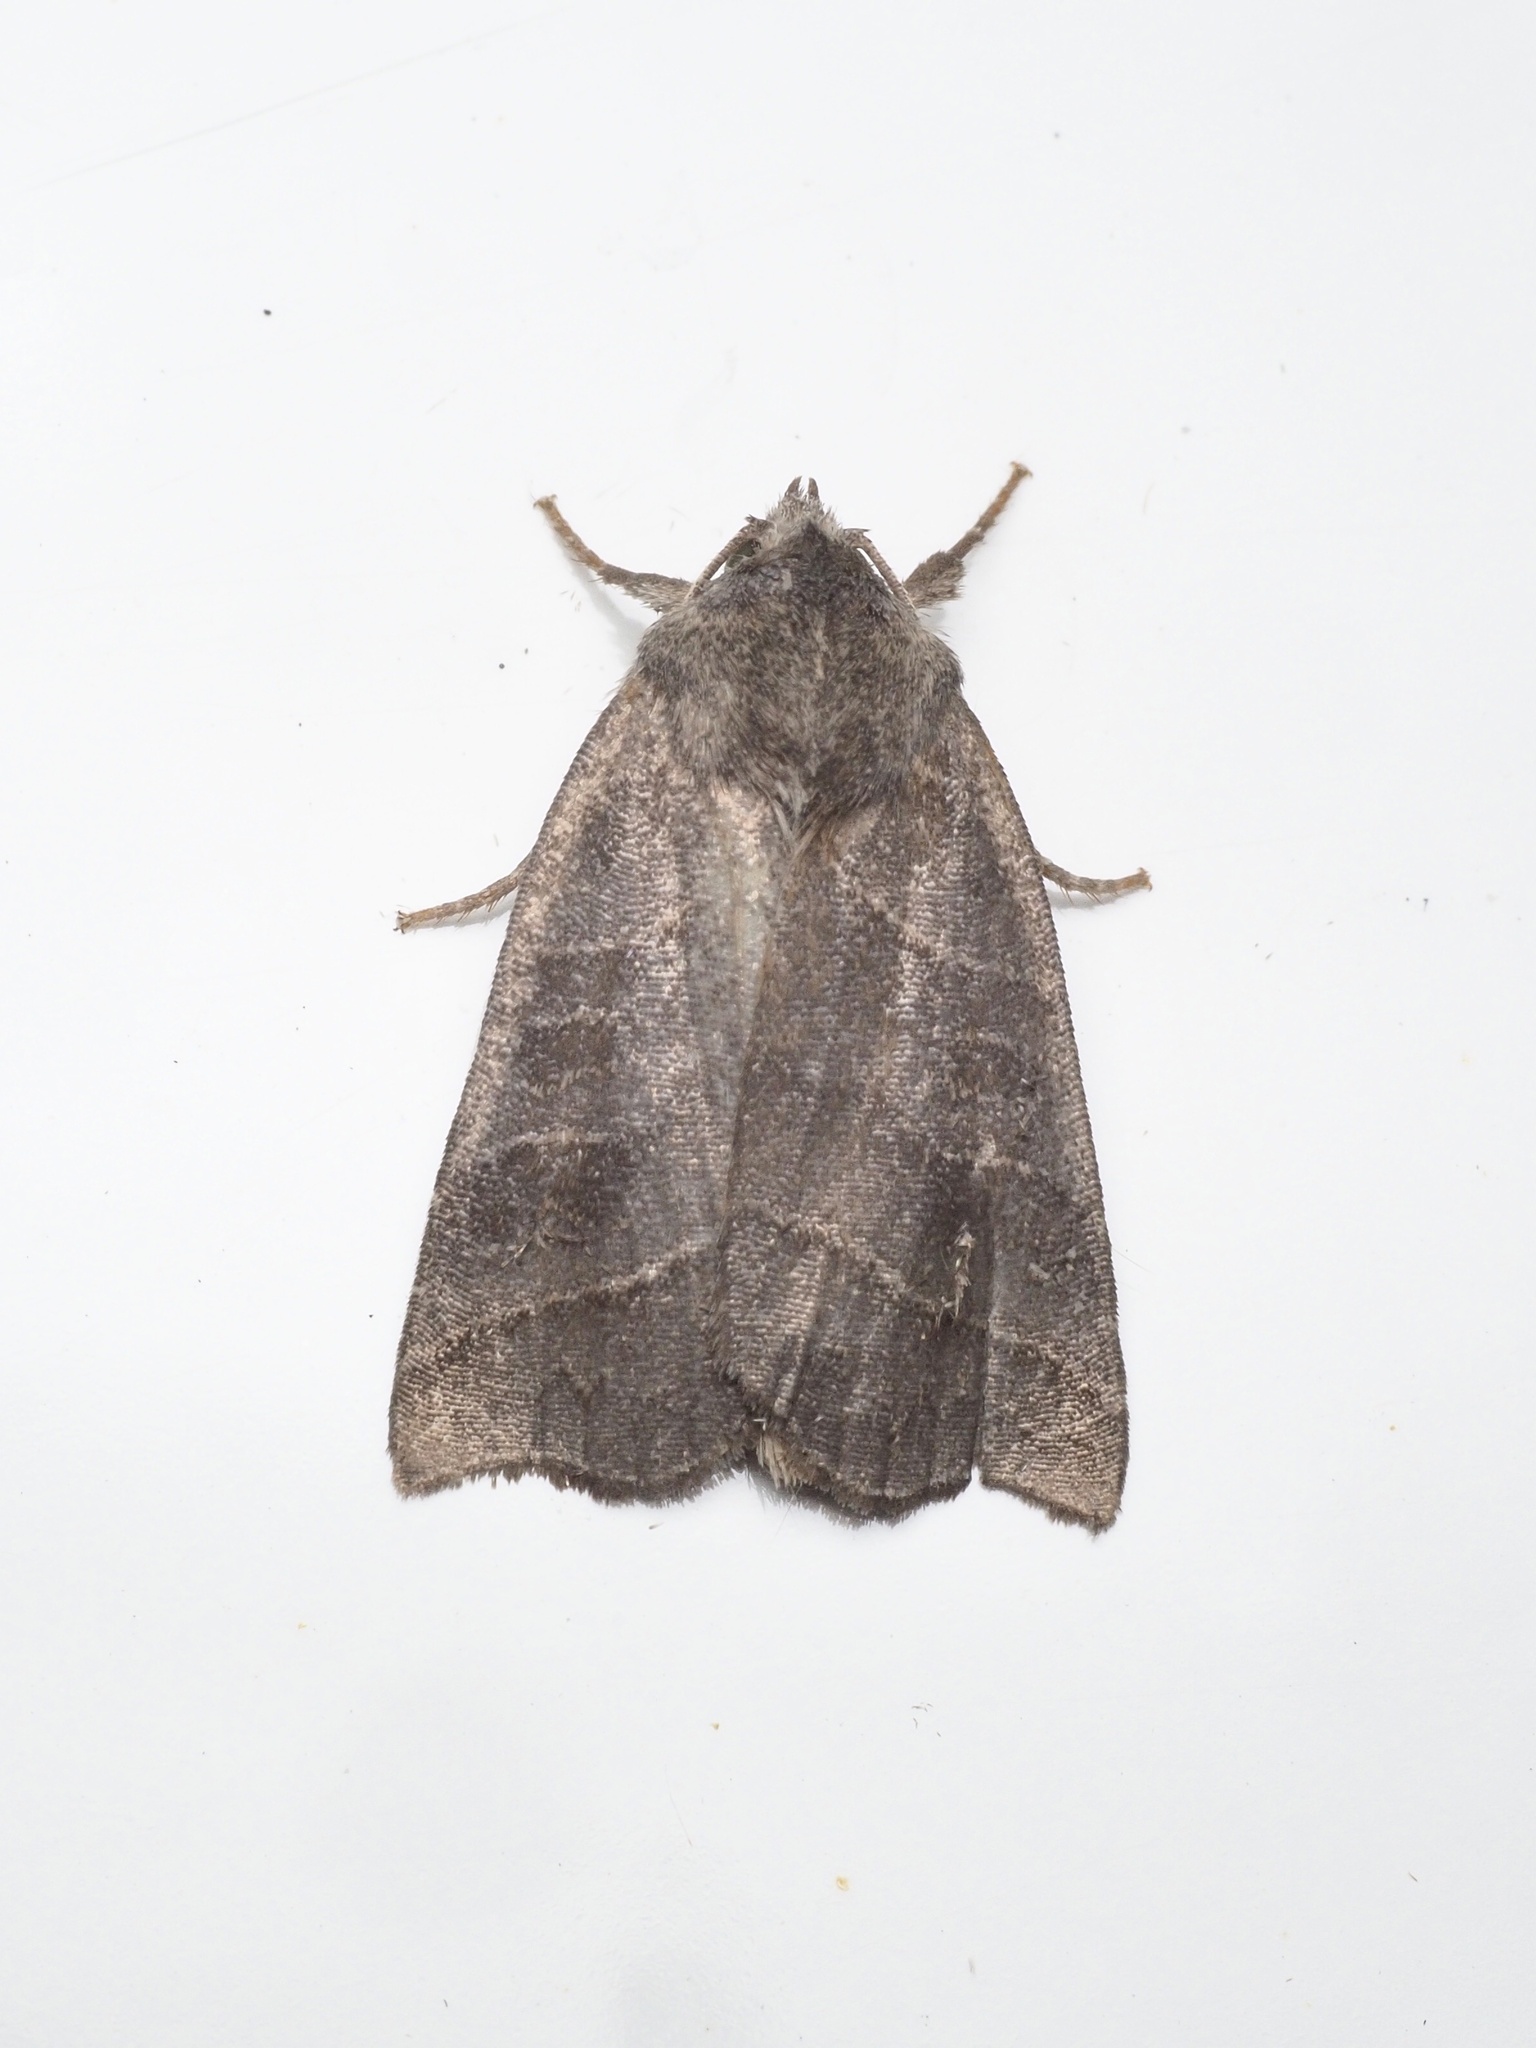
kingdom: Animalia
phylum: Arthropoda
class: Insecta
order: Lepidoptera
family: Noctuidae
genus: Ipimorpha
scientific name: Ipimorpha retusa
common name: Double kidney
